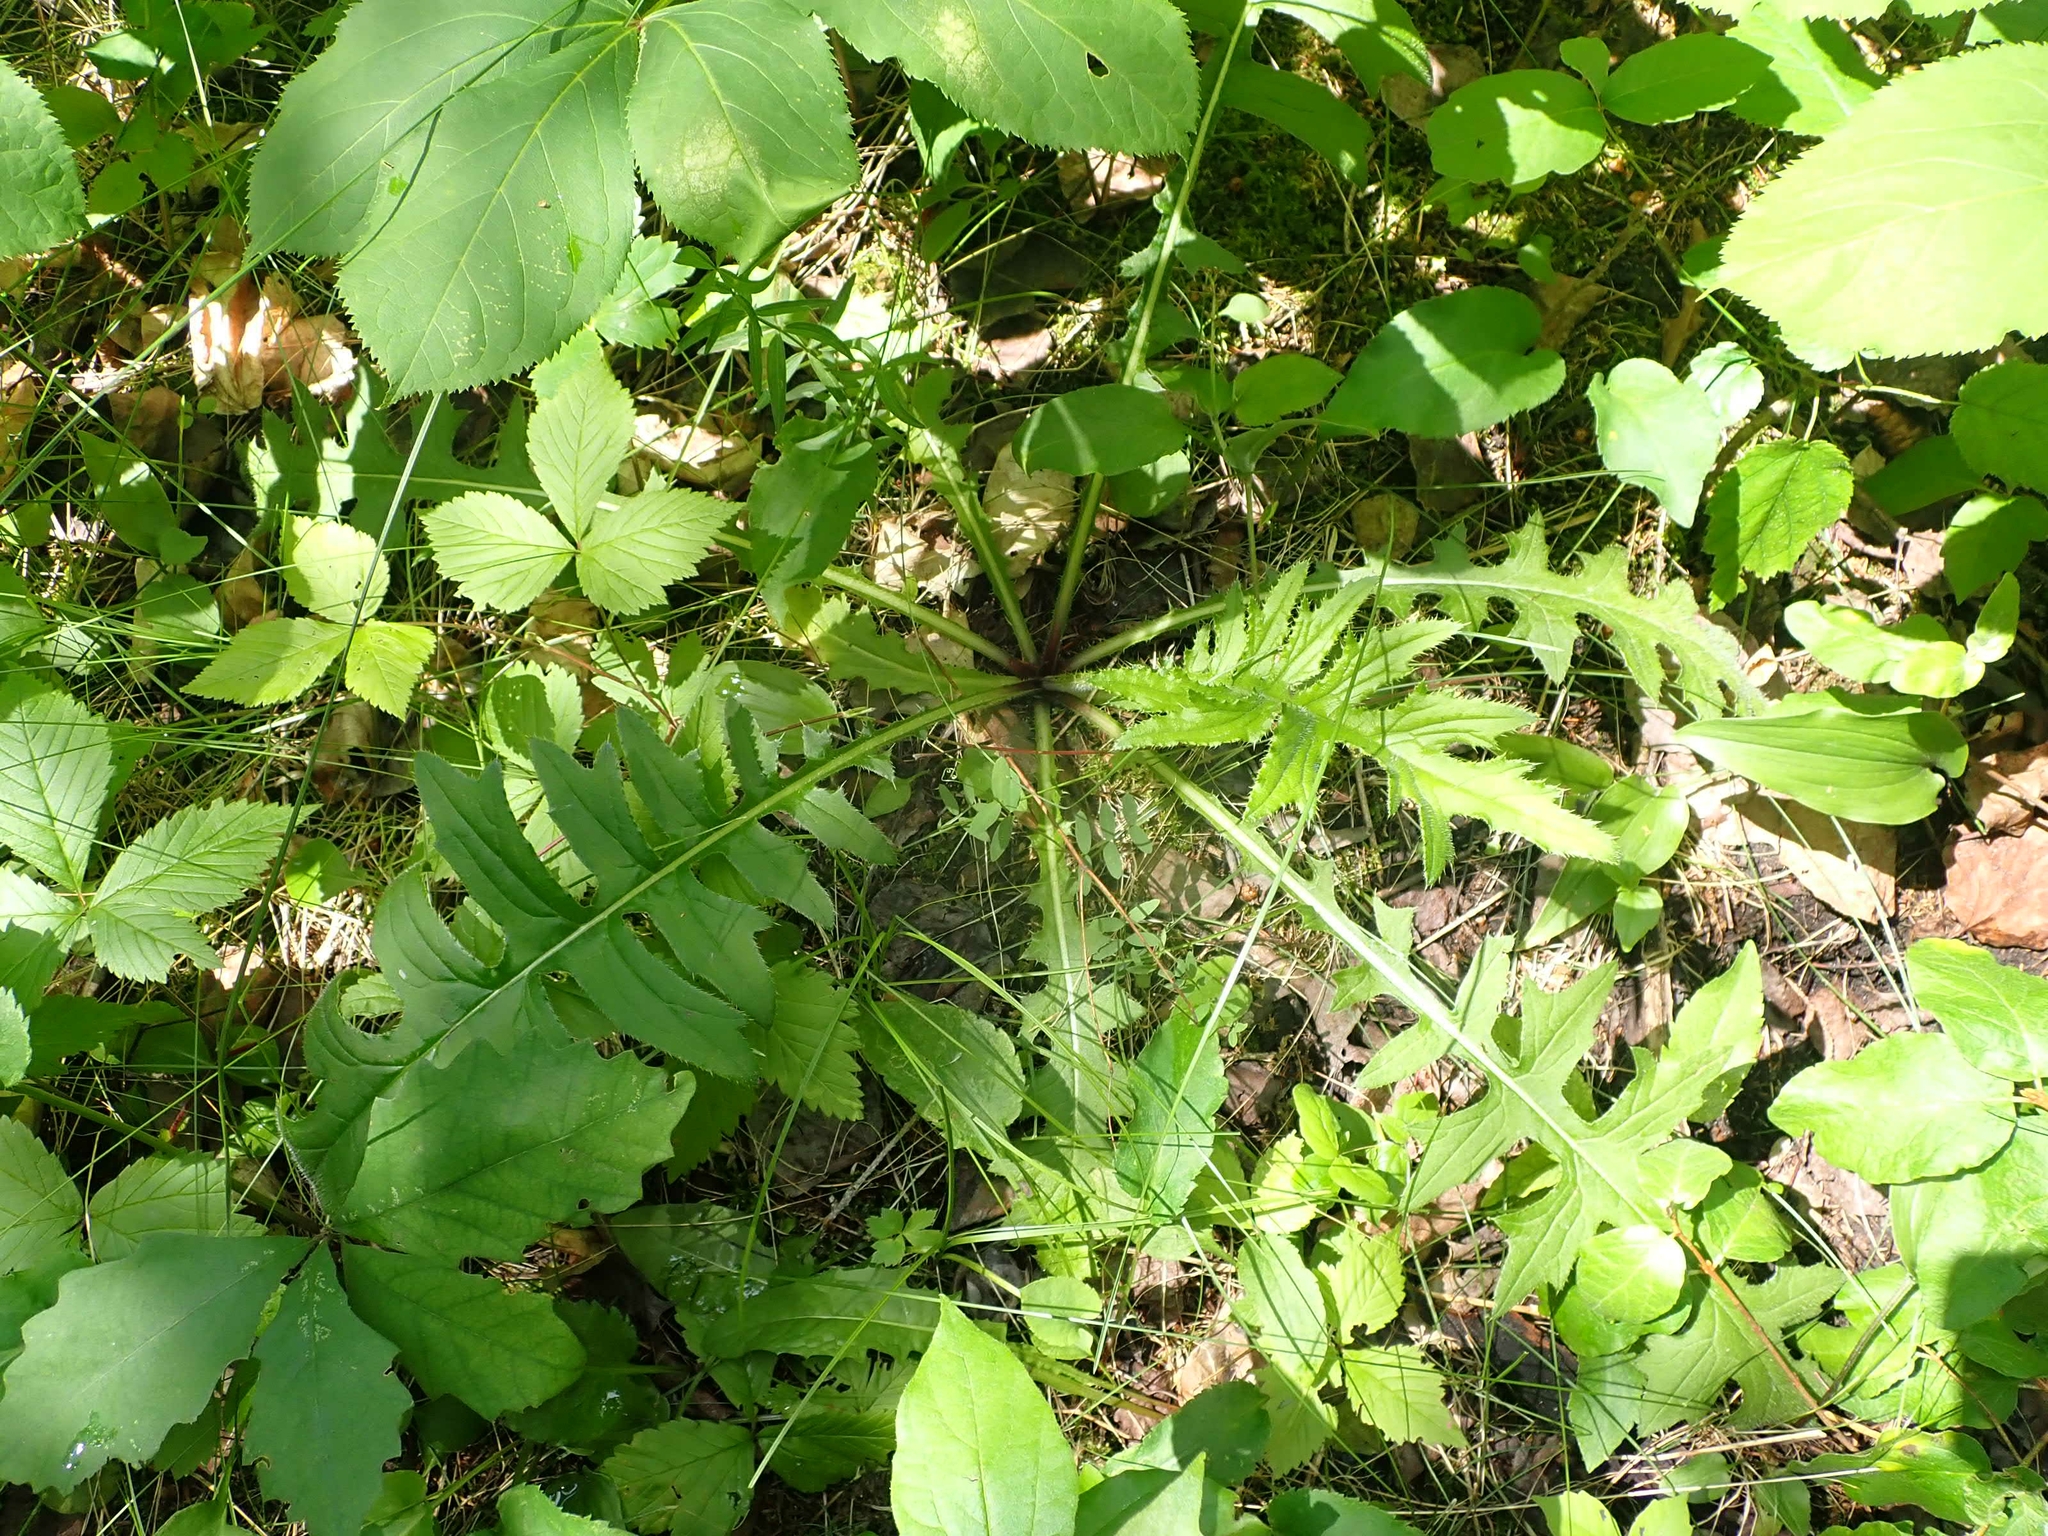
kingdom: Plantae
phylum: Tracheophyta
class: Magnoliopsida
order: Asterales
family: Asteraceae
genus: Cirsium
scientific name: Cirsium muticum
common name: Dunce-nettle
